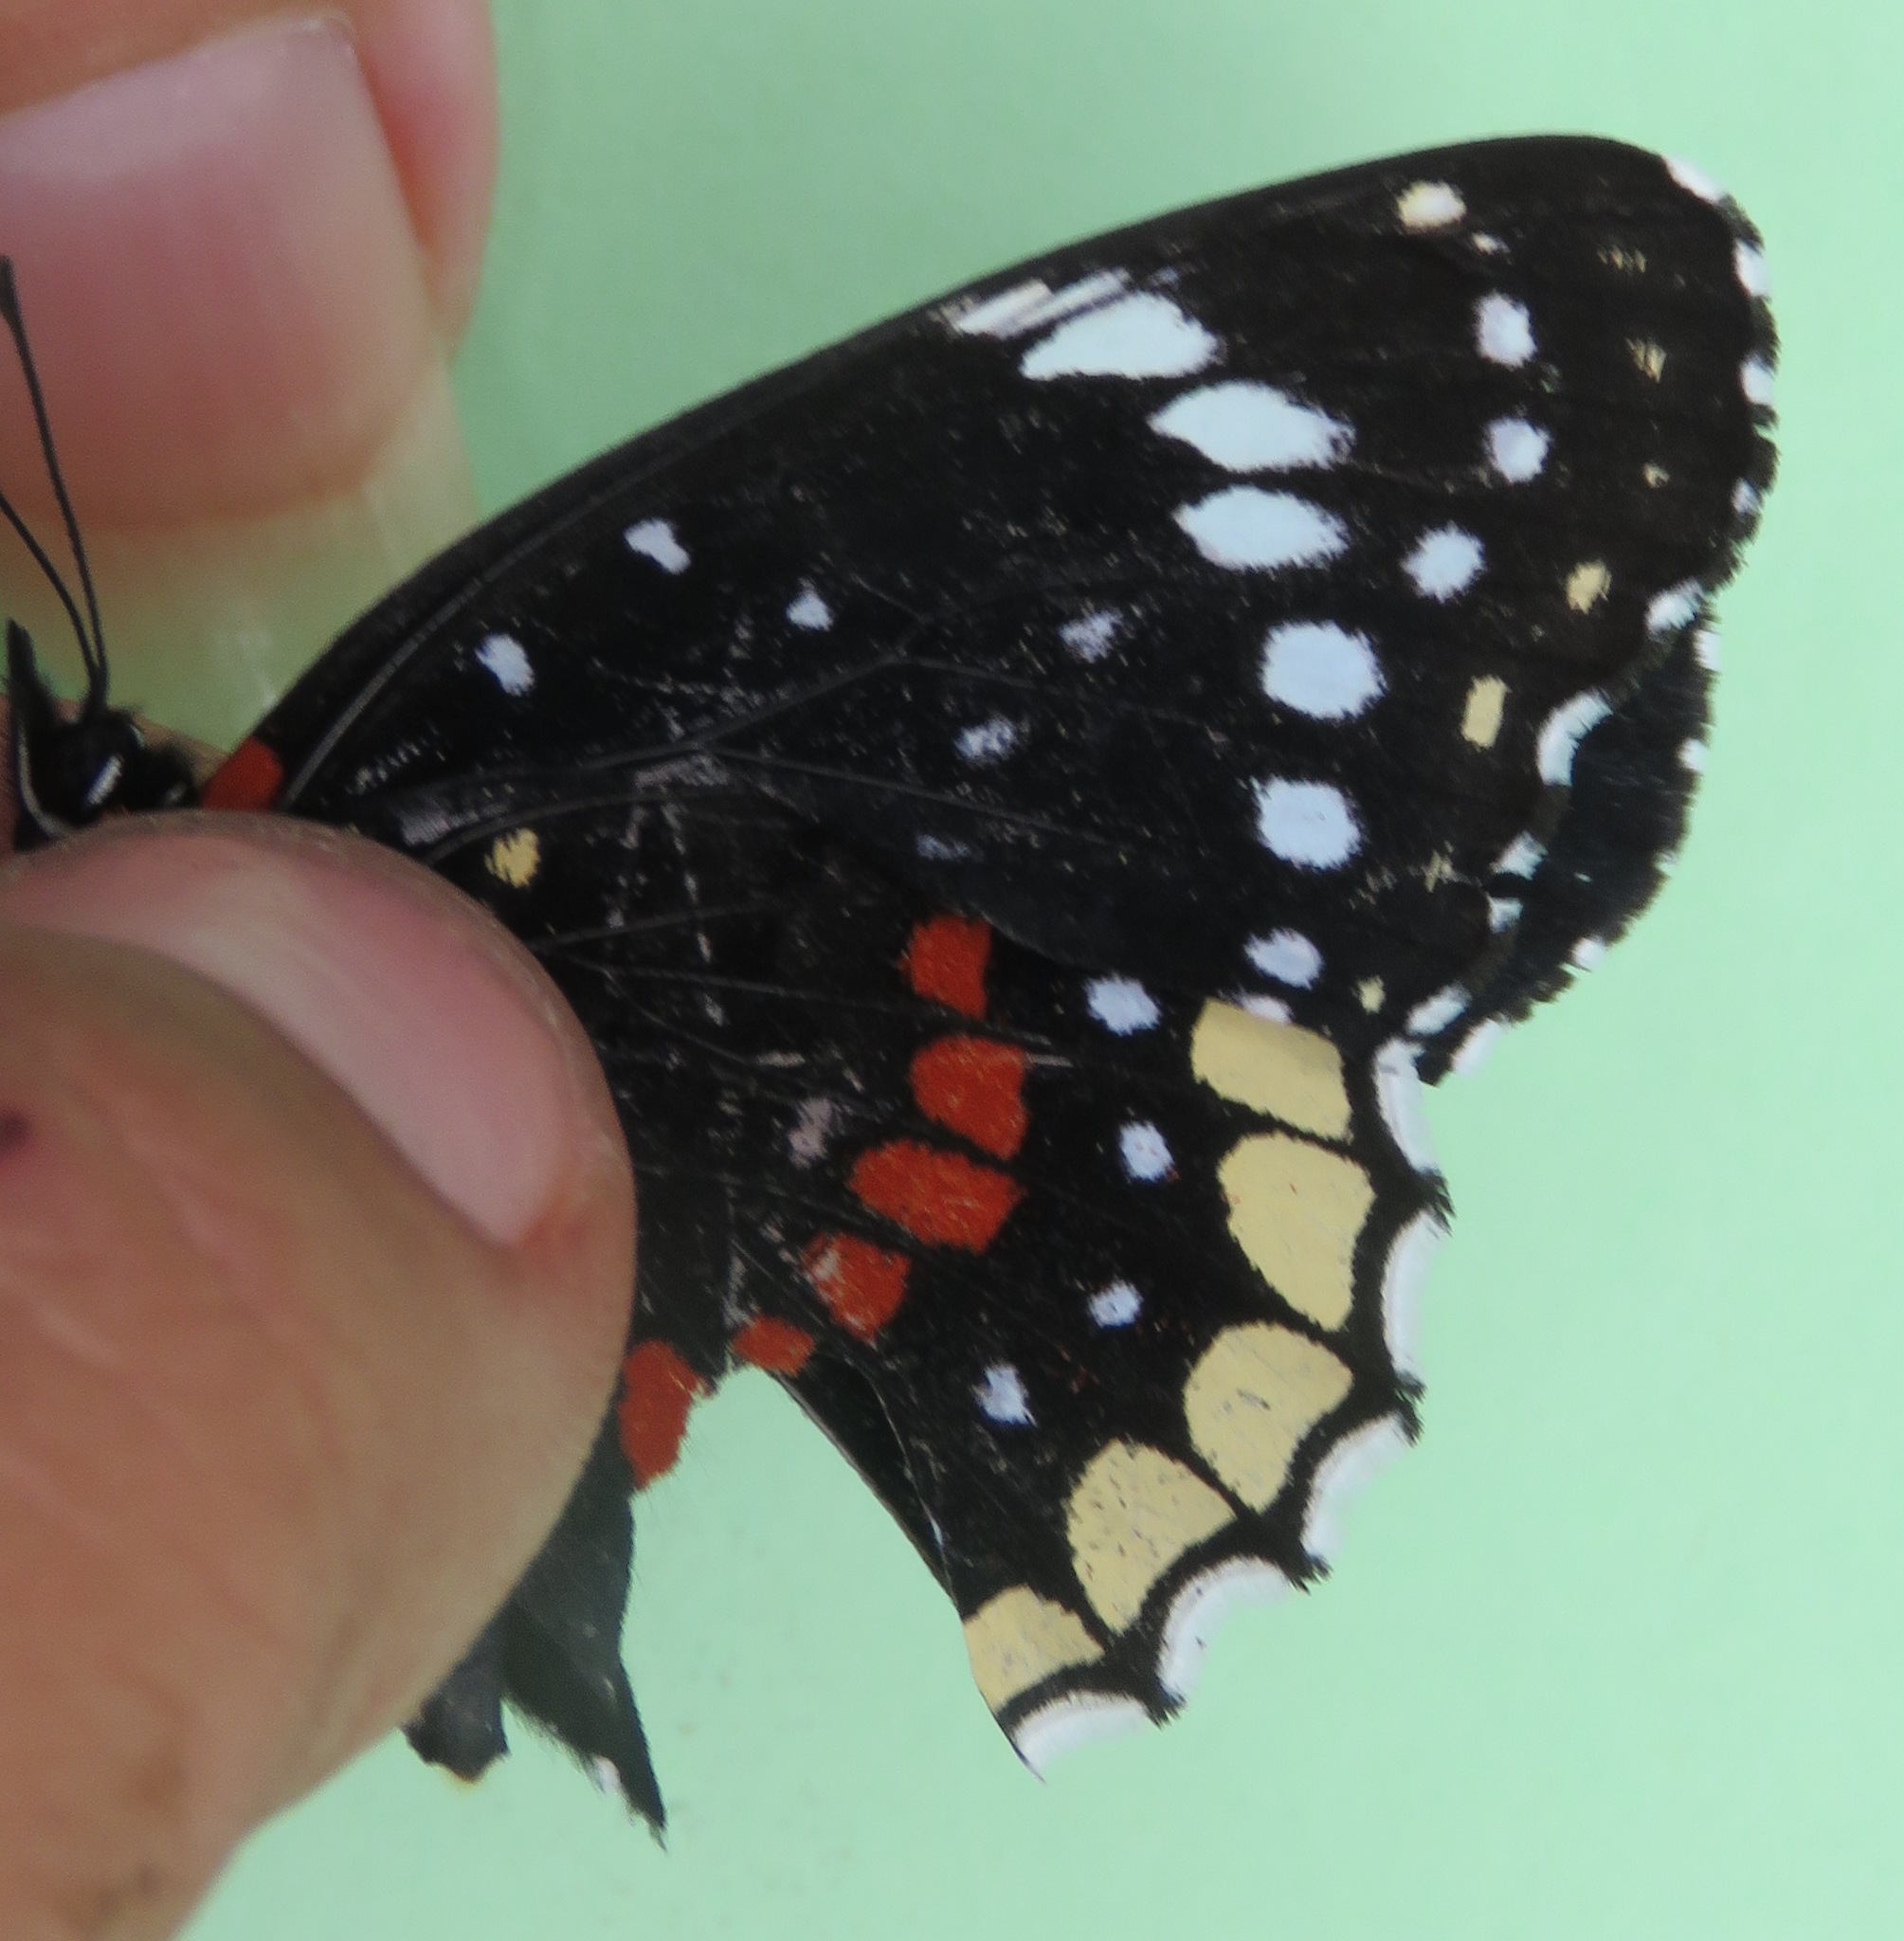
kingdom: Animalia
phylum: Arthropoda
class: Insecta
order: Lepidoptera
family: Nymphalidae
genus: Chlosyne
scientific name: Chlosyne hippodrome
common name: Simple patch
